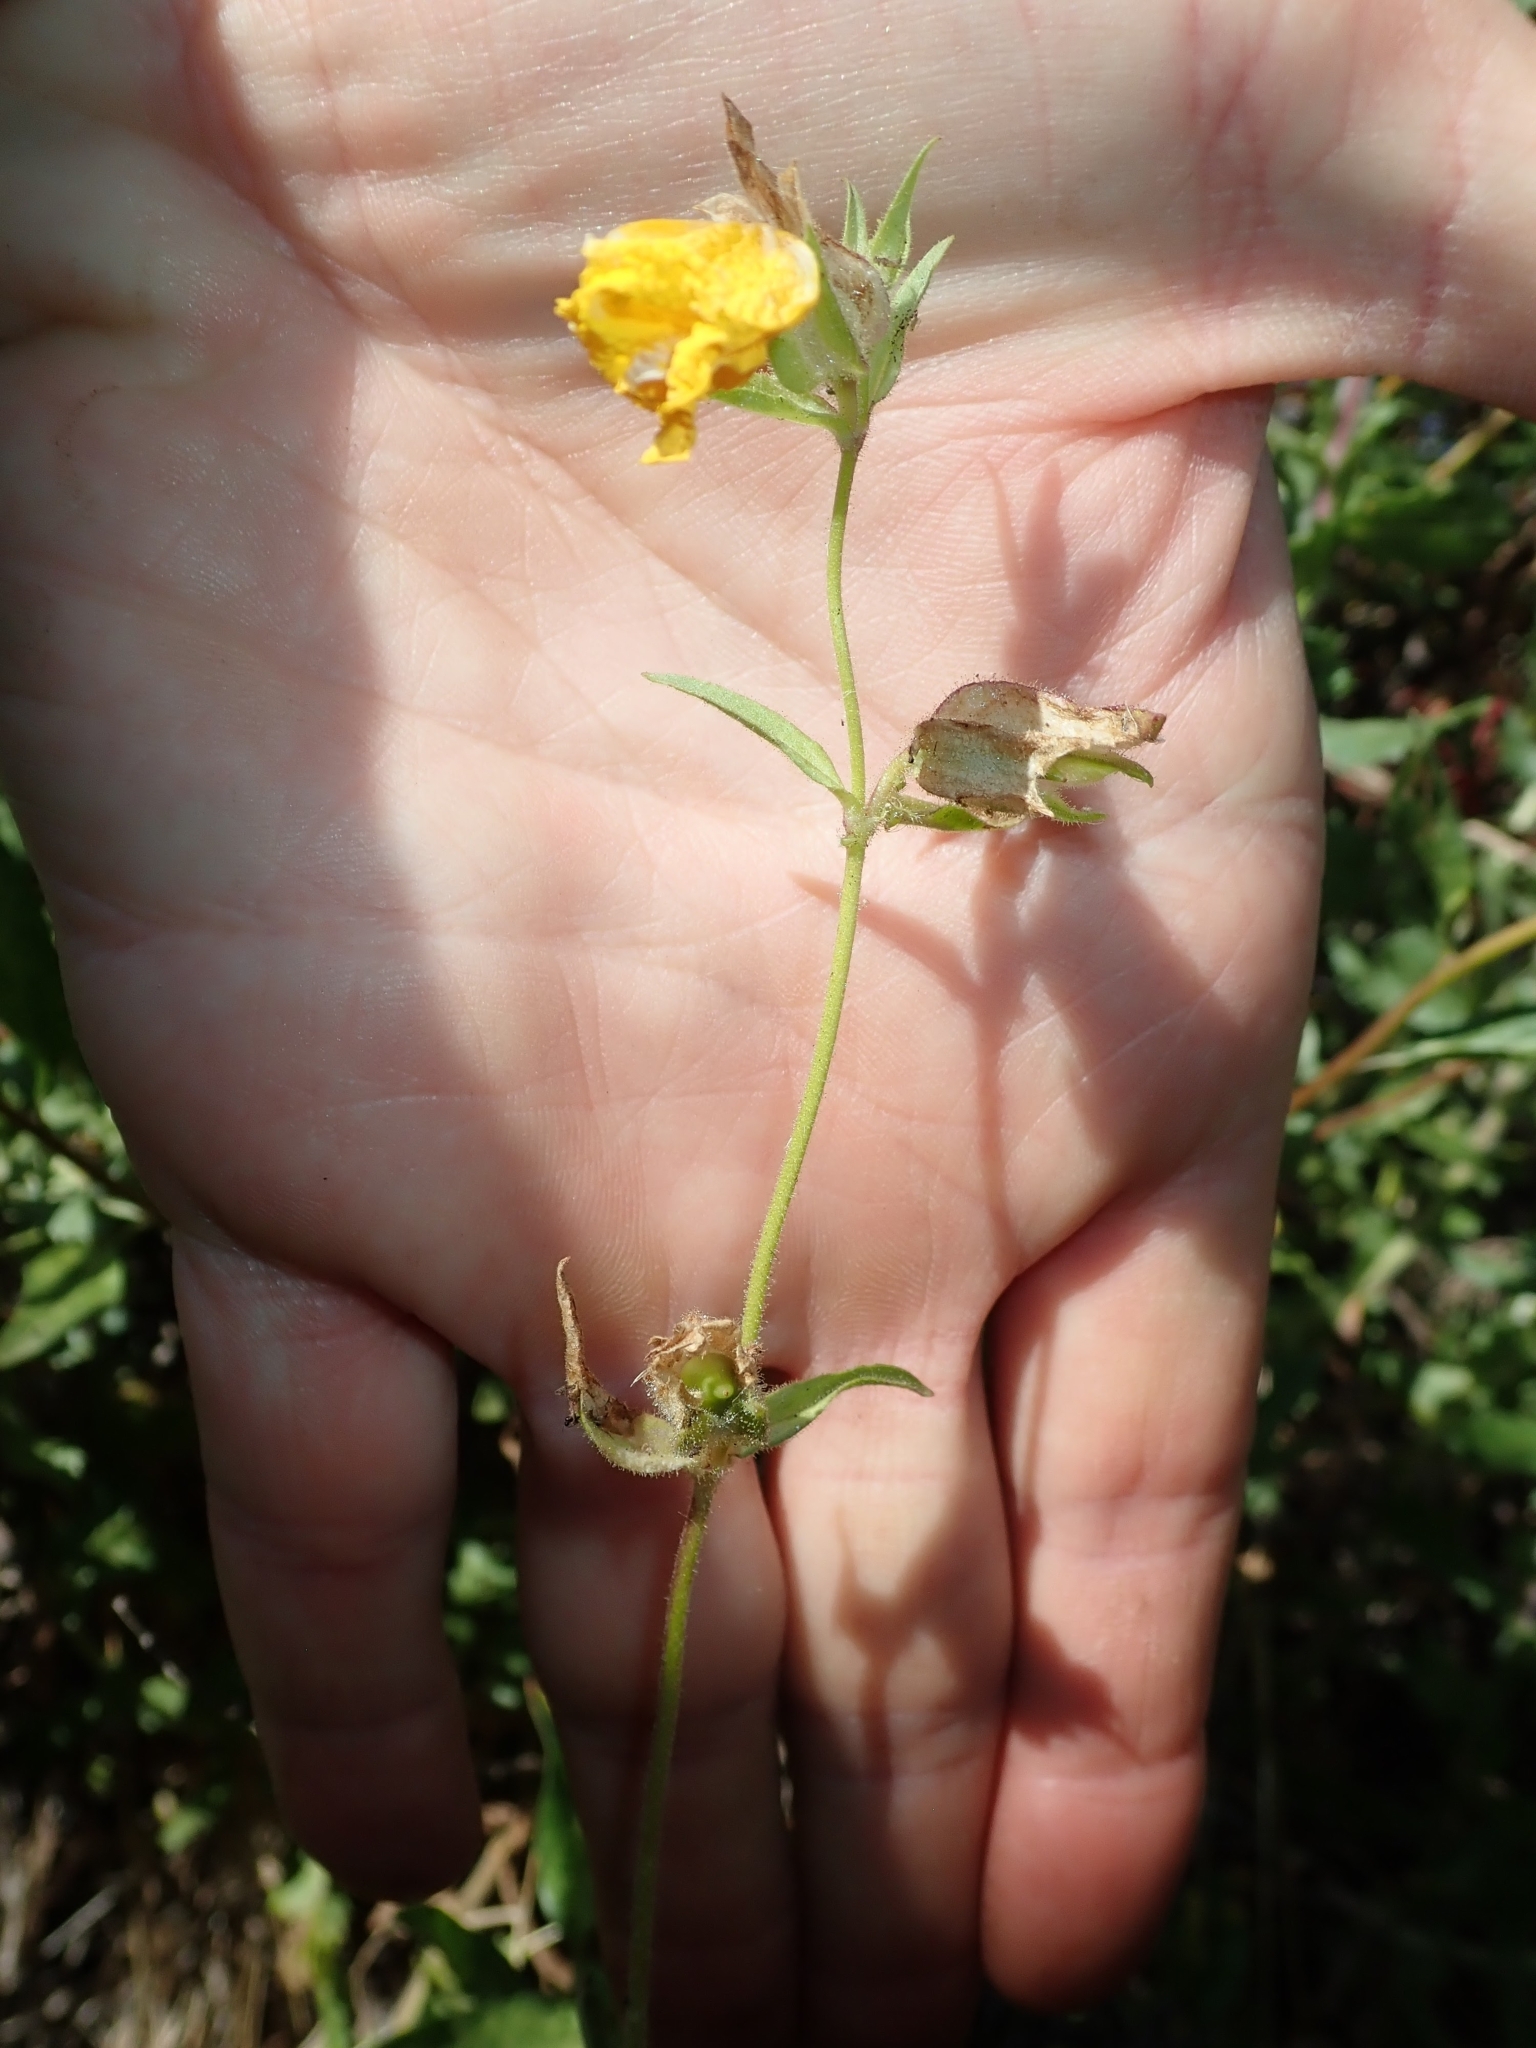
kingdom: Plantae
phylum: Tracheophyta
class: Magnoliopsida
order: Lamiales
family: Phrymaceae
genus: Diplacus
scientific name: Diplacus brevipes
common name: Wide-throat yellow monkey-flower
